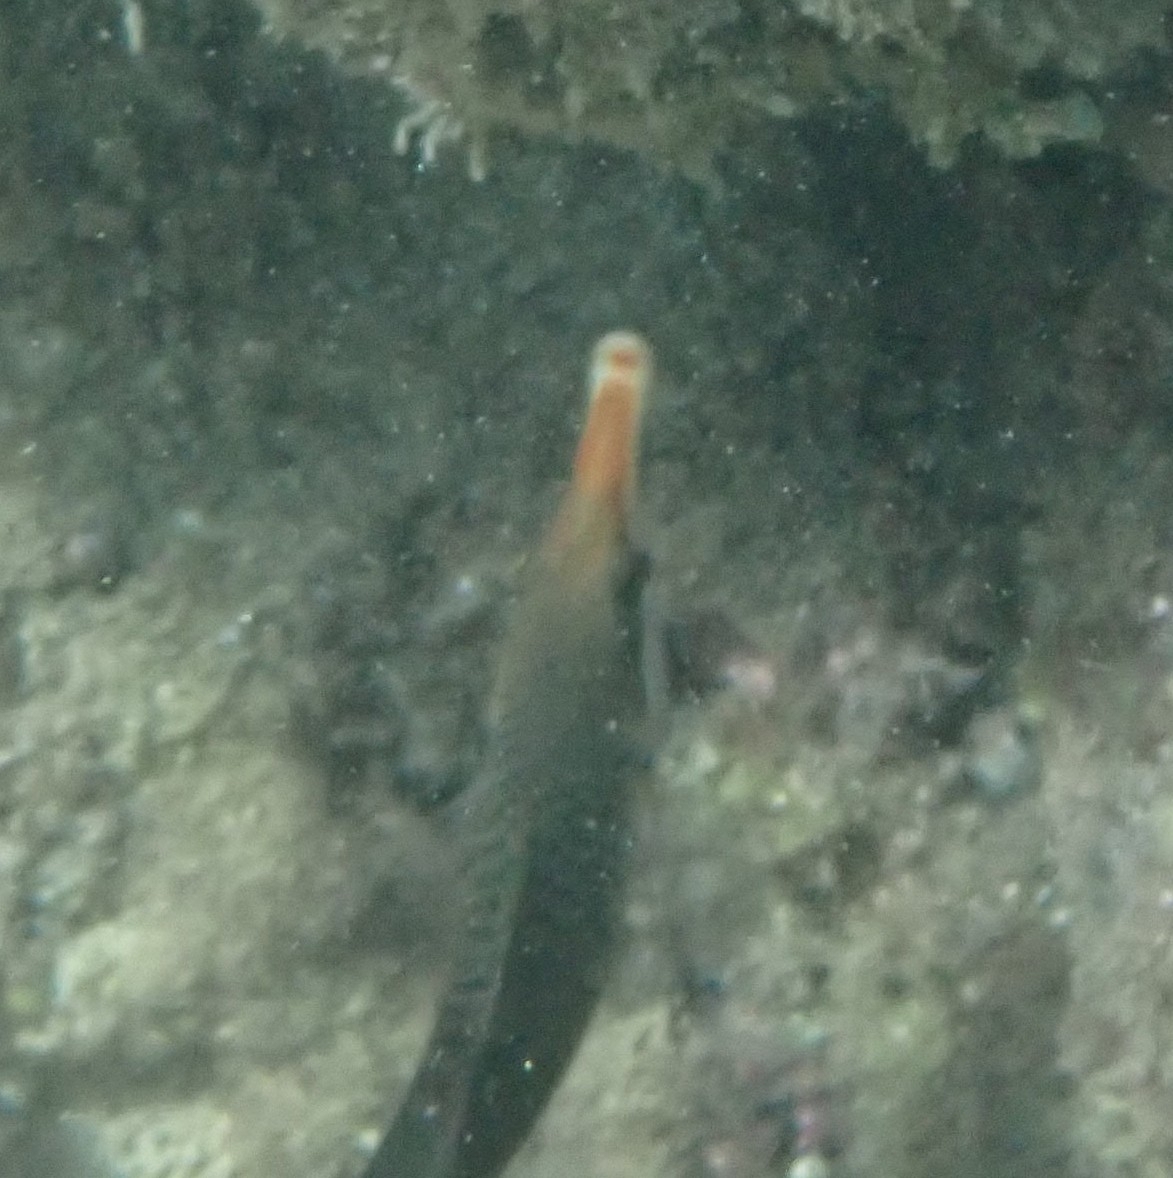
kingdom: Animalia
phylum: Chordata
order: Perciformes
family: Labridae
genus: Gomphosus
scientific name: Gomphosus varius
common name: Bird wrasse
